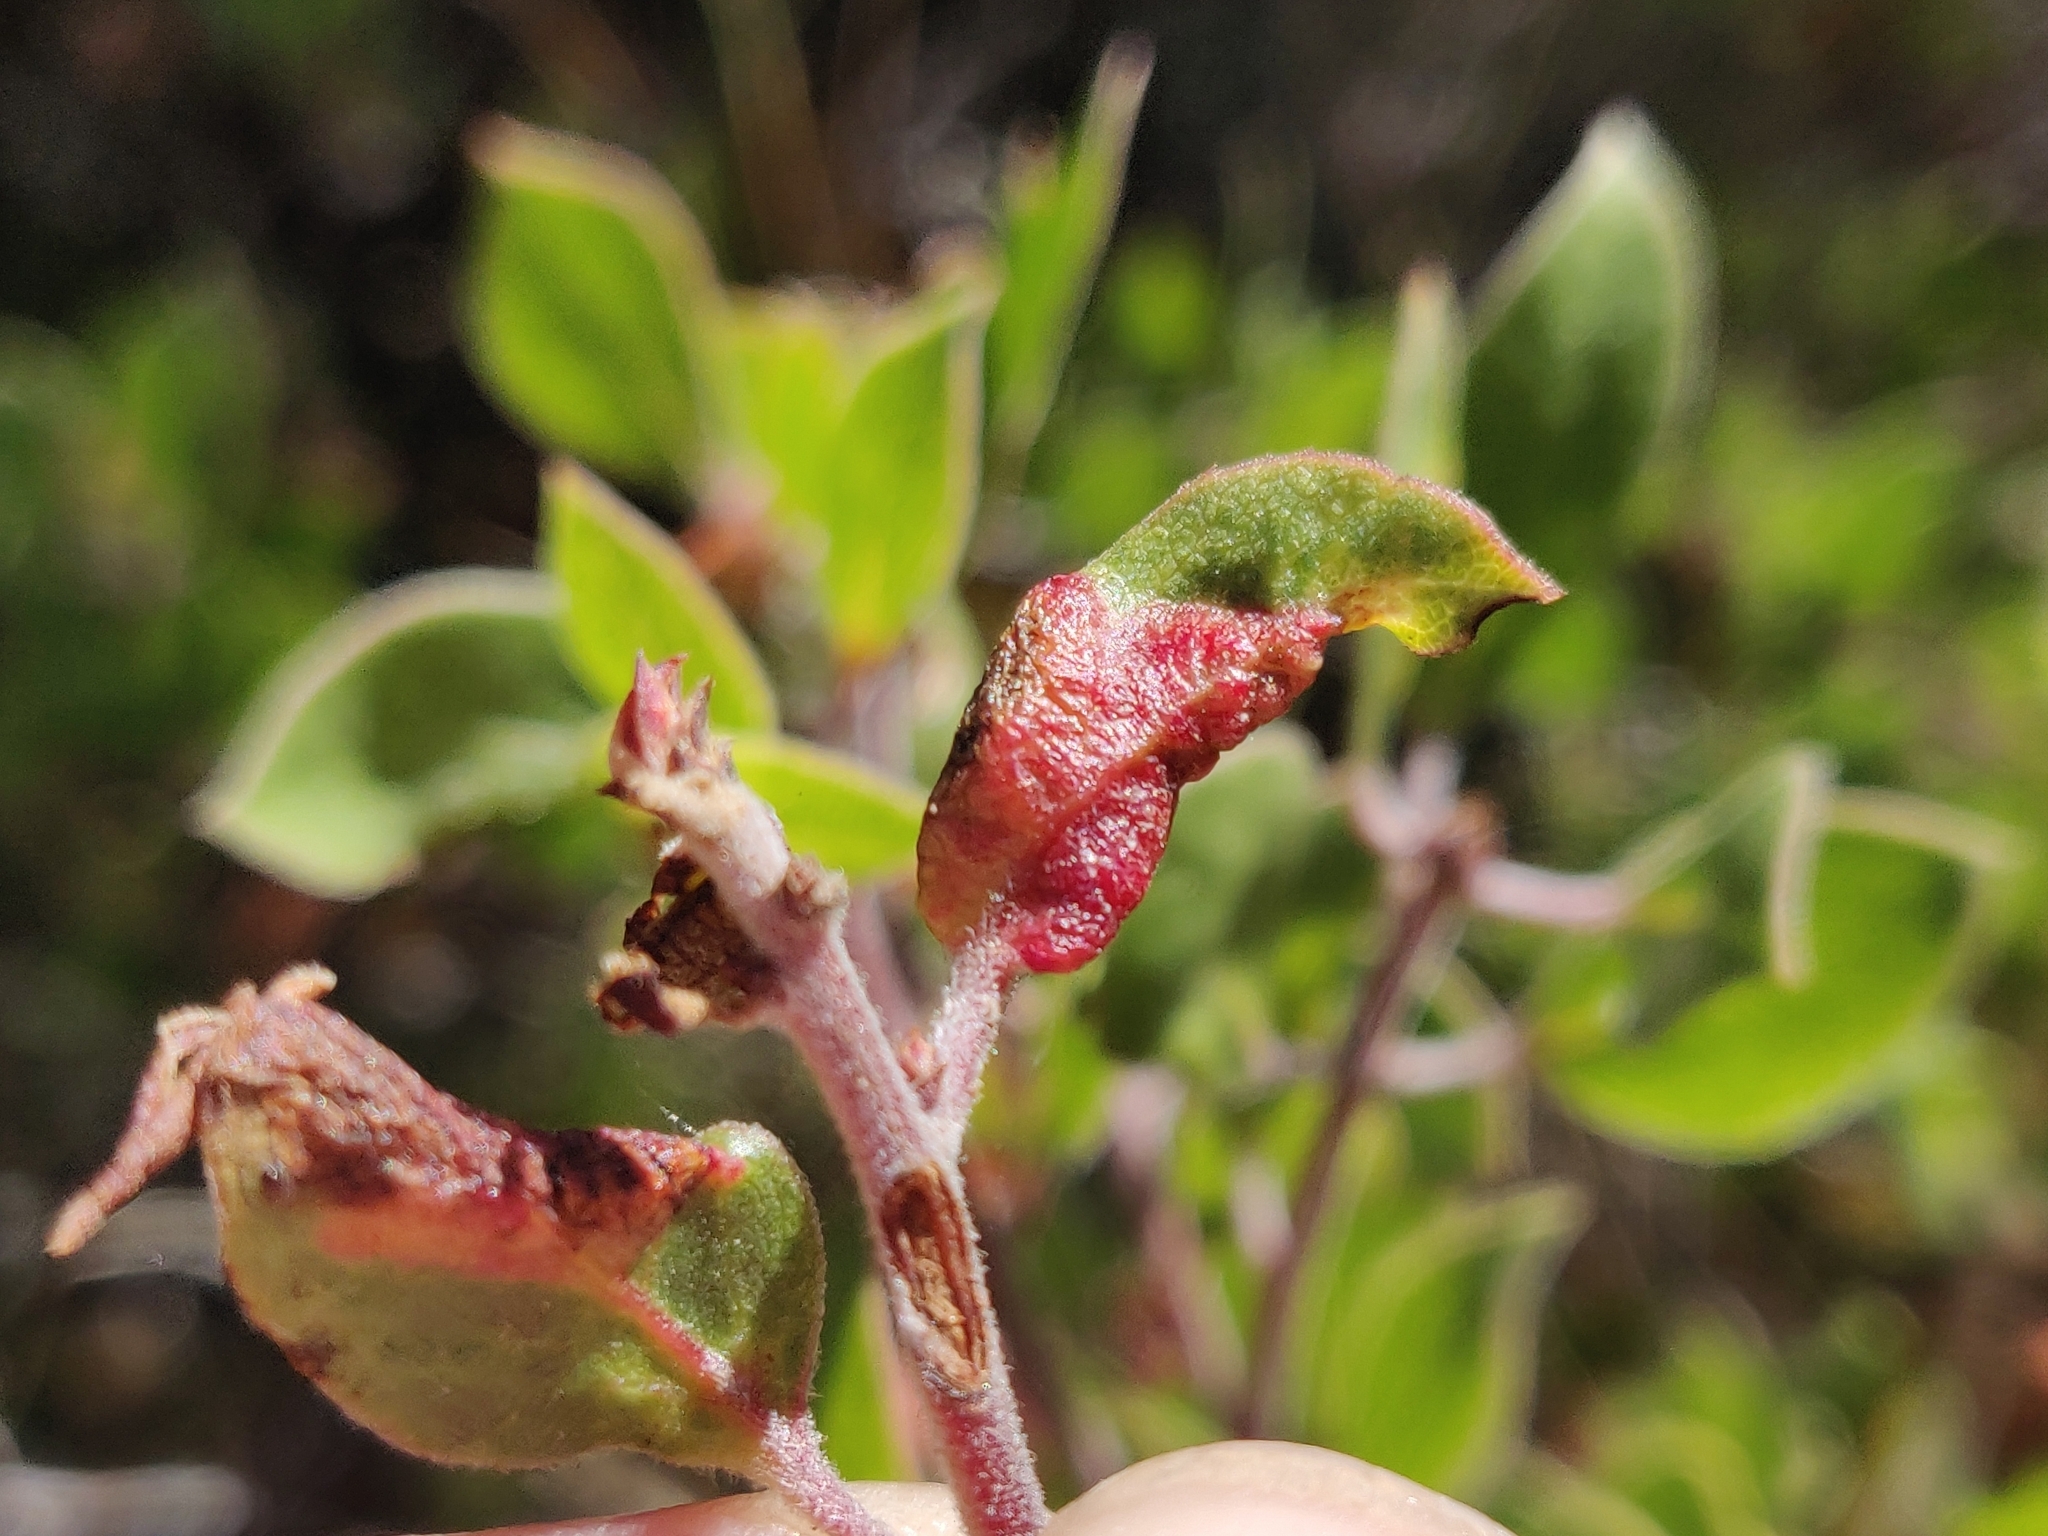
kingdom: Animalia
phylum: Arthropoda
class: Insecta
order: Hemiptera
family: Aphididae
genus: Tamalia
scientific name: Tamalia coweni
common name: Manzanita leafgall aphid
